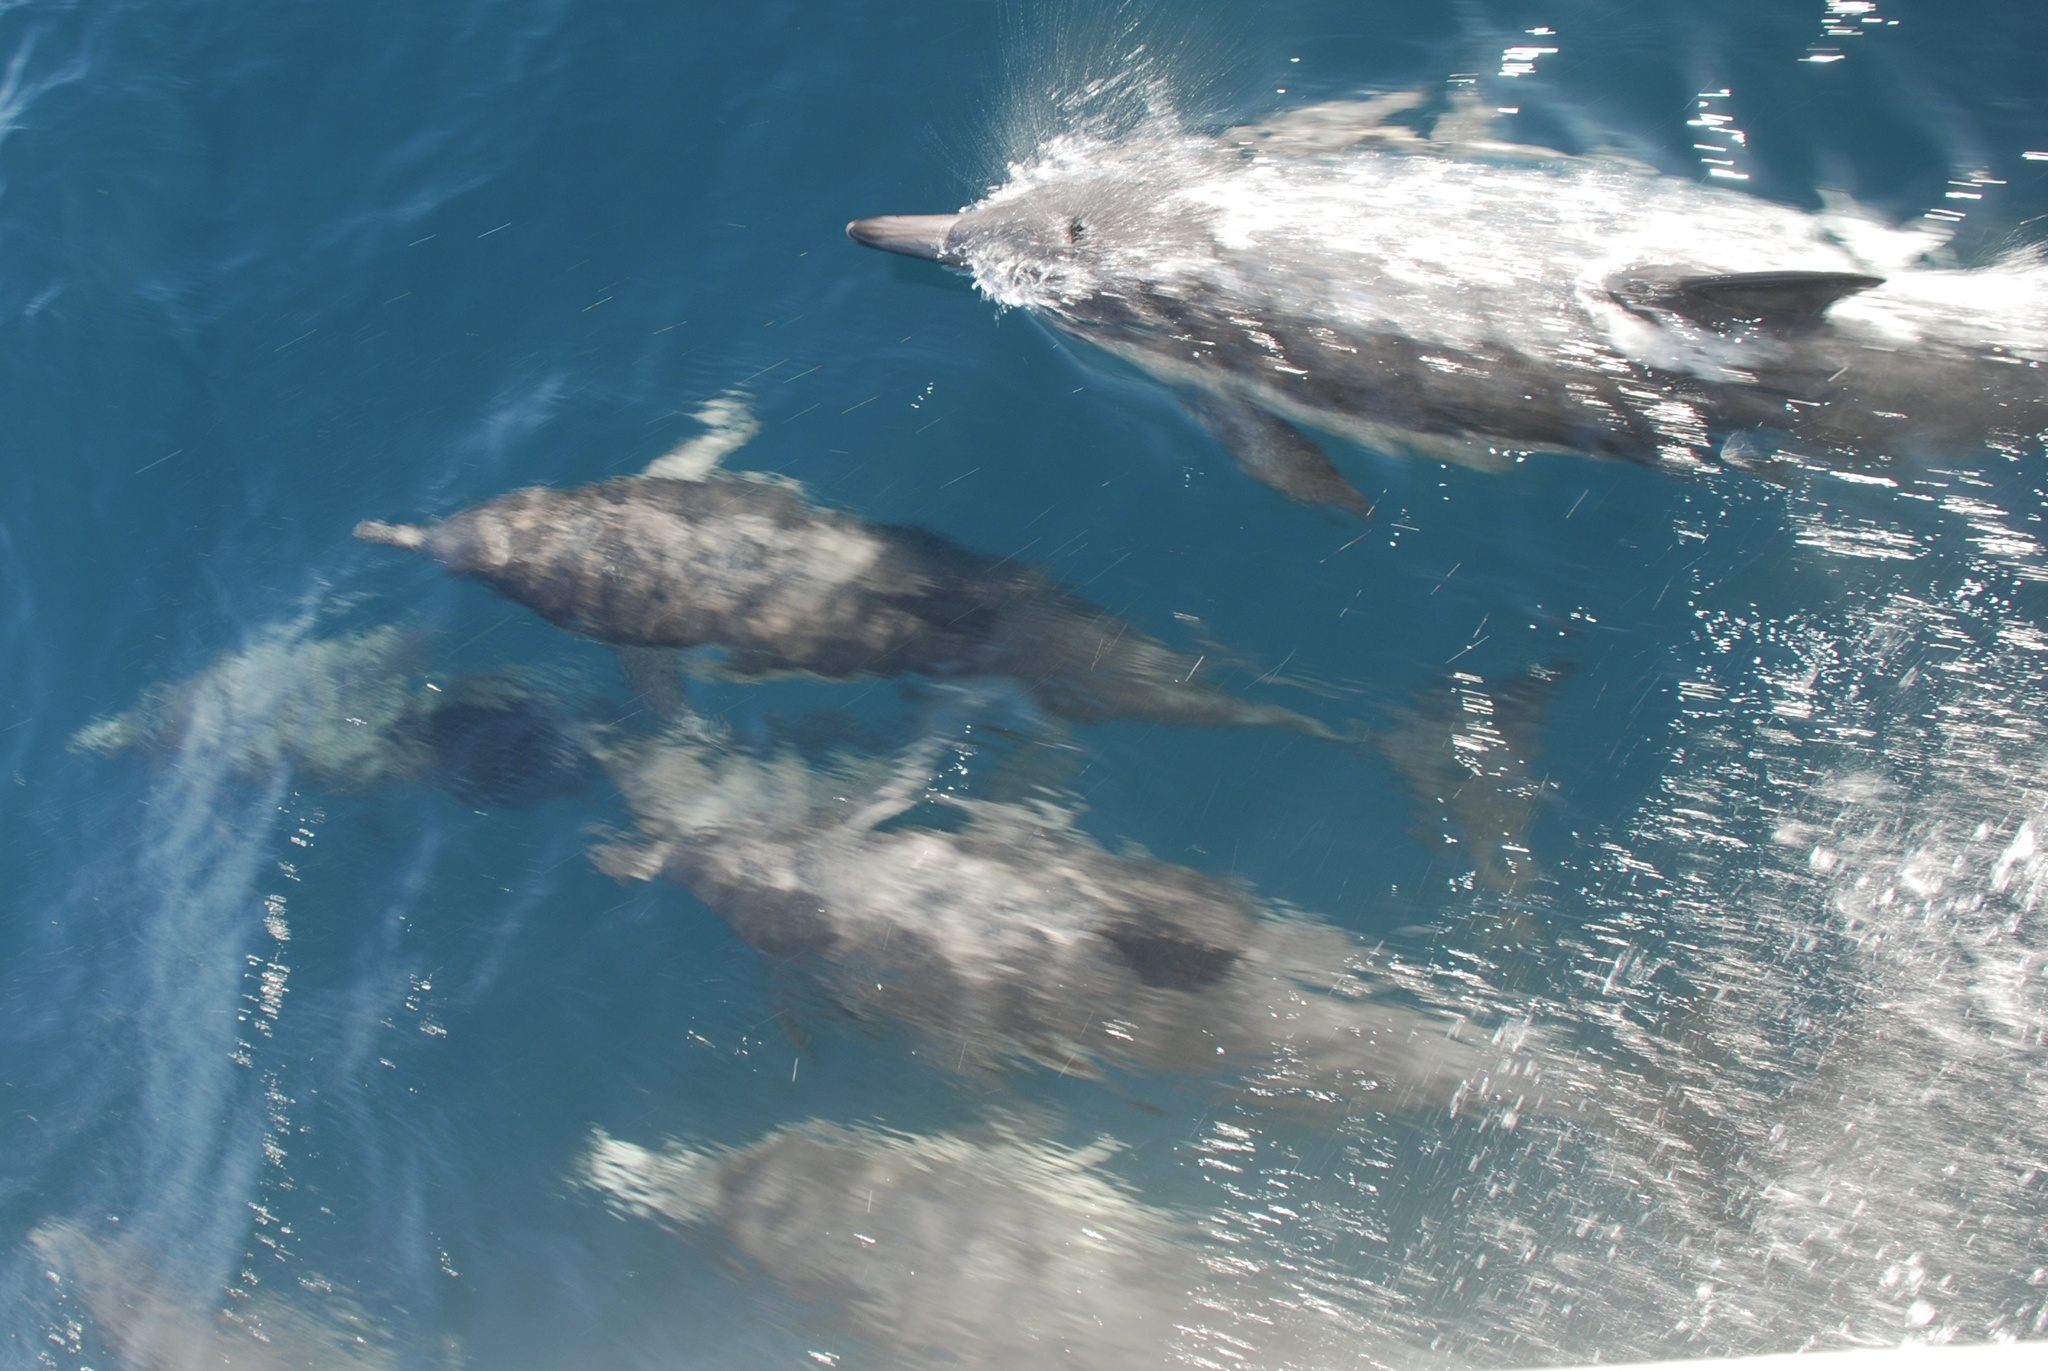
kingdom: Animalia
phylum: Chordata
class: Mammalia
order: Cetacea
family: Delphinidae
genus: Delphinus
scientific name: Delphinus delphis
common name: Common dolphin
